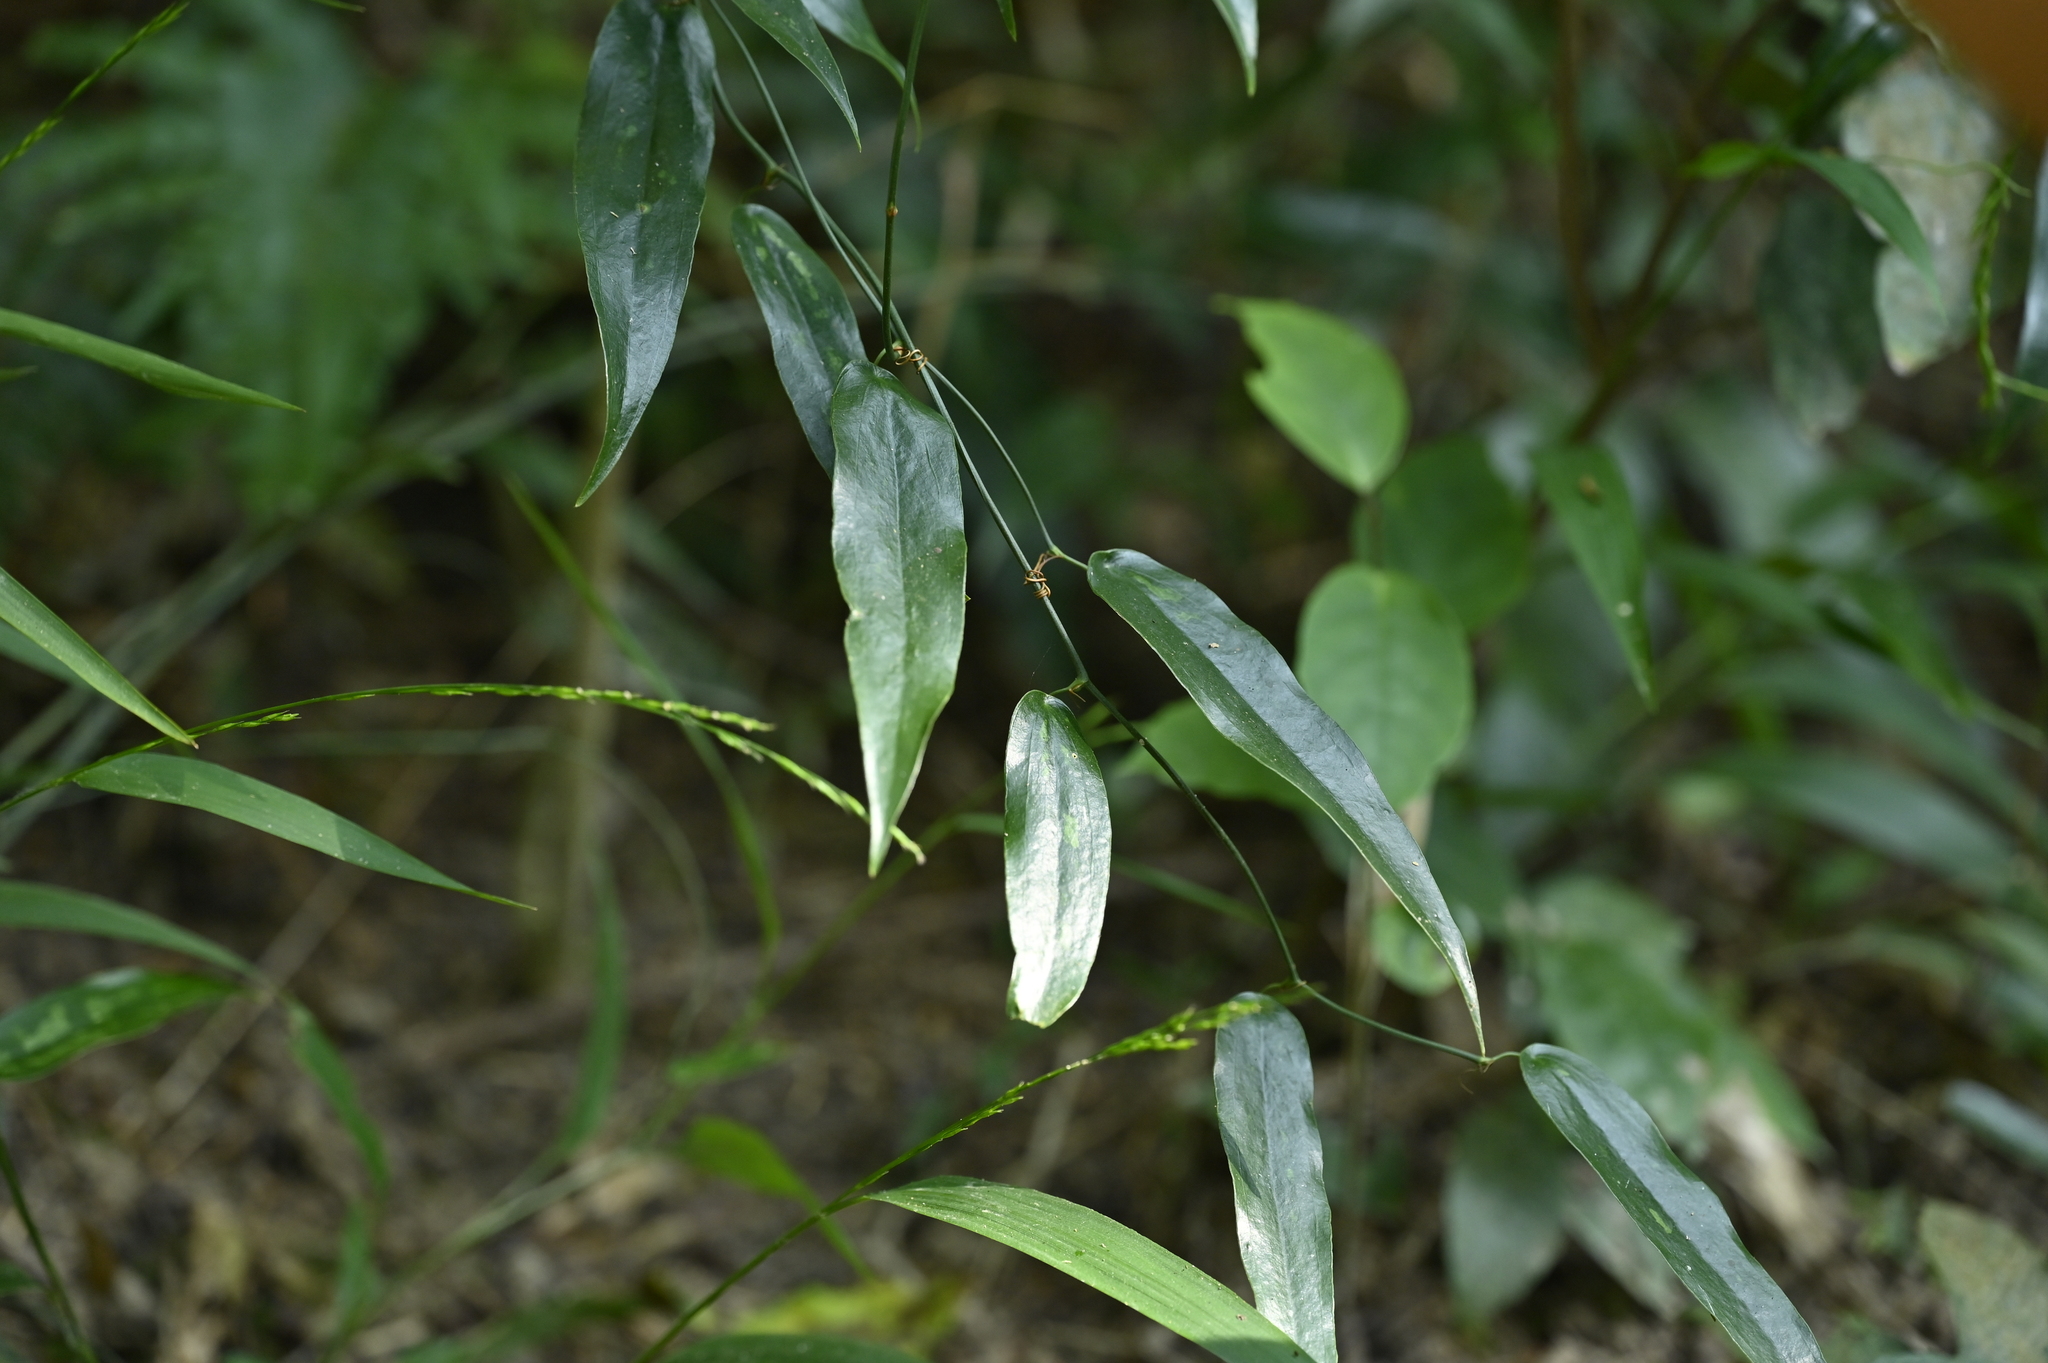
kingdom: Plantae
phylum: Tracheophyta
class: Liliopsida
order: Liliales
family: Smilacaceae
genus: Smilax
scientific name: Smilax luei
